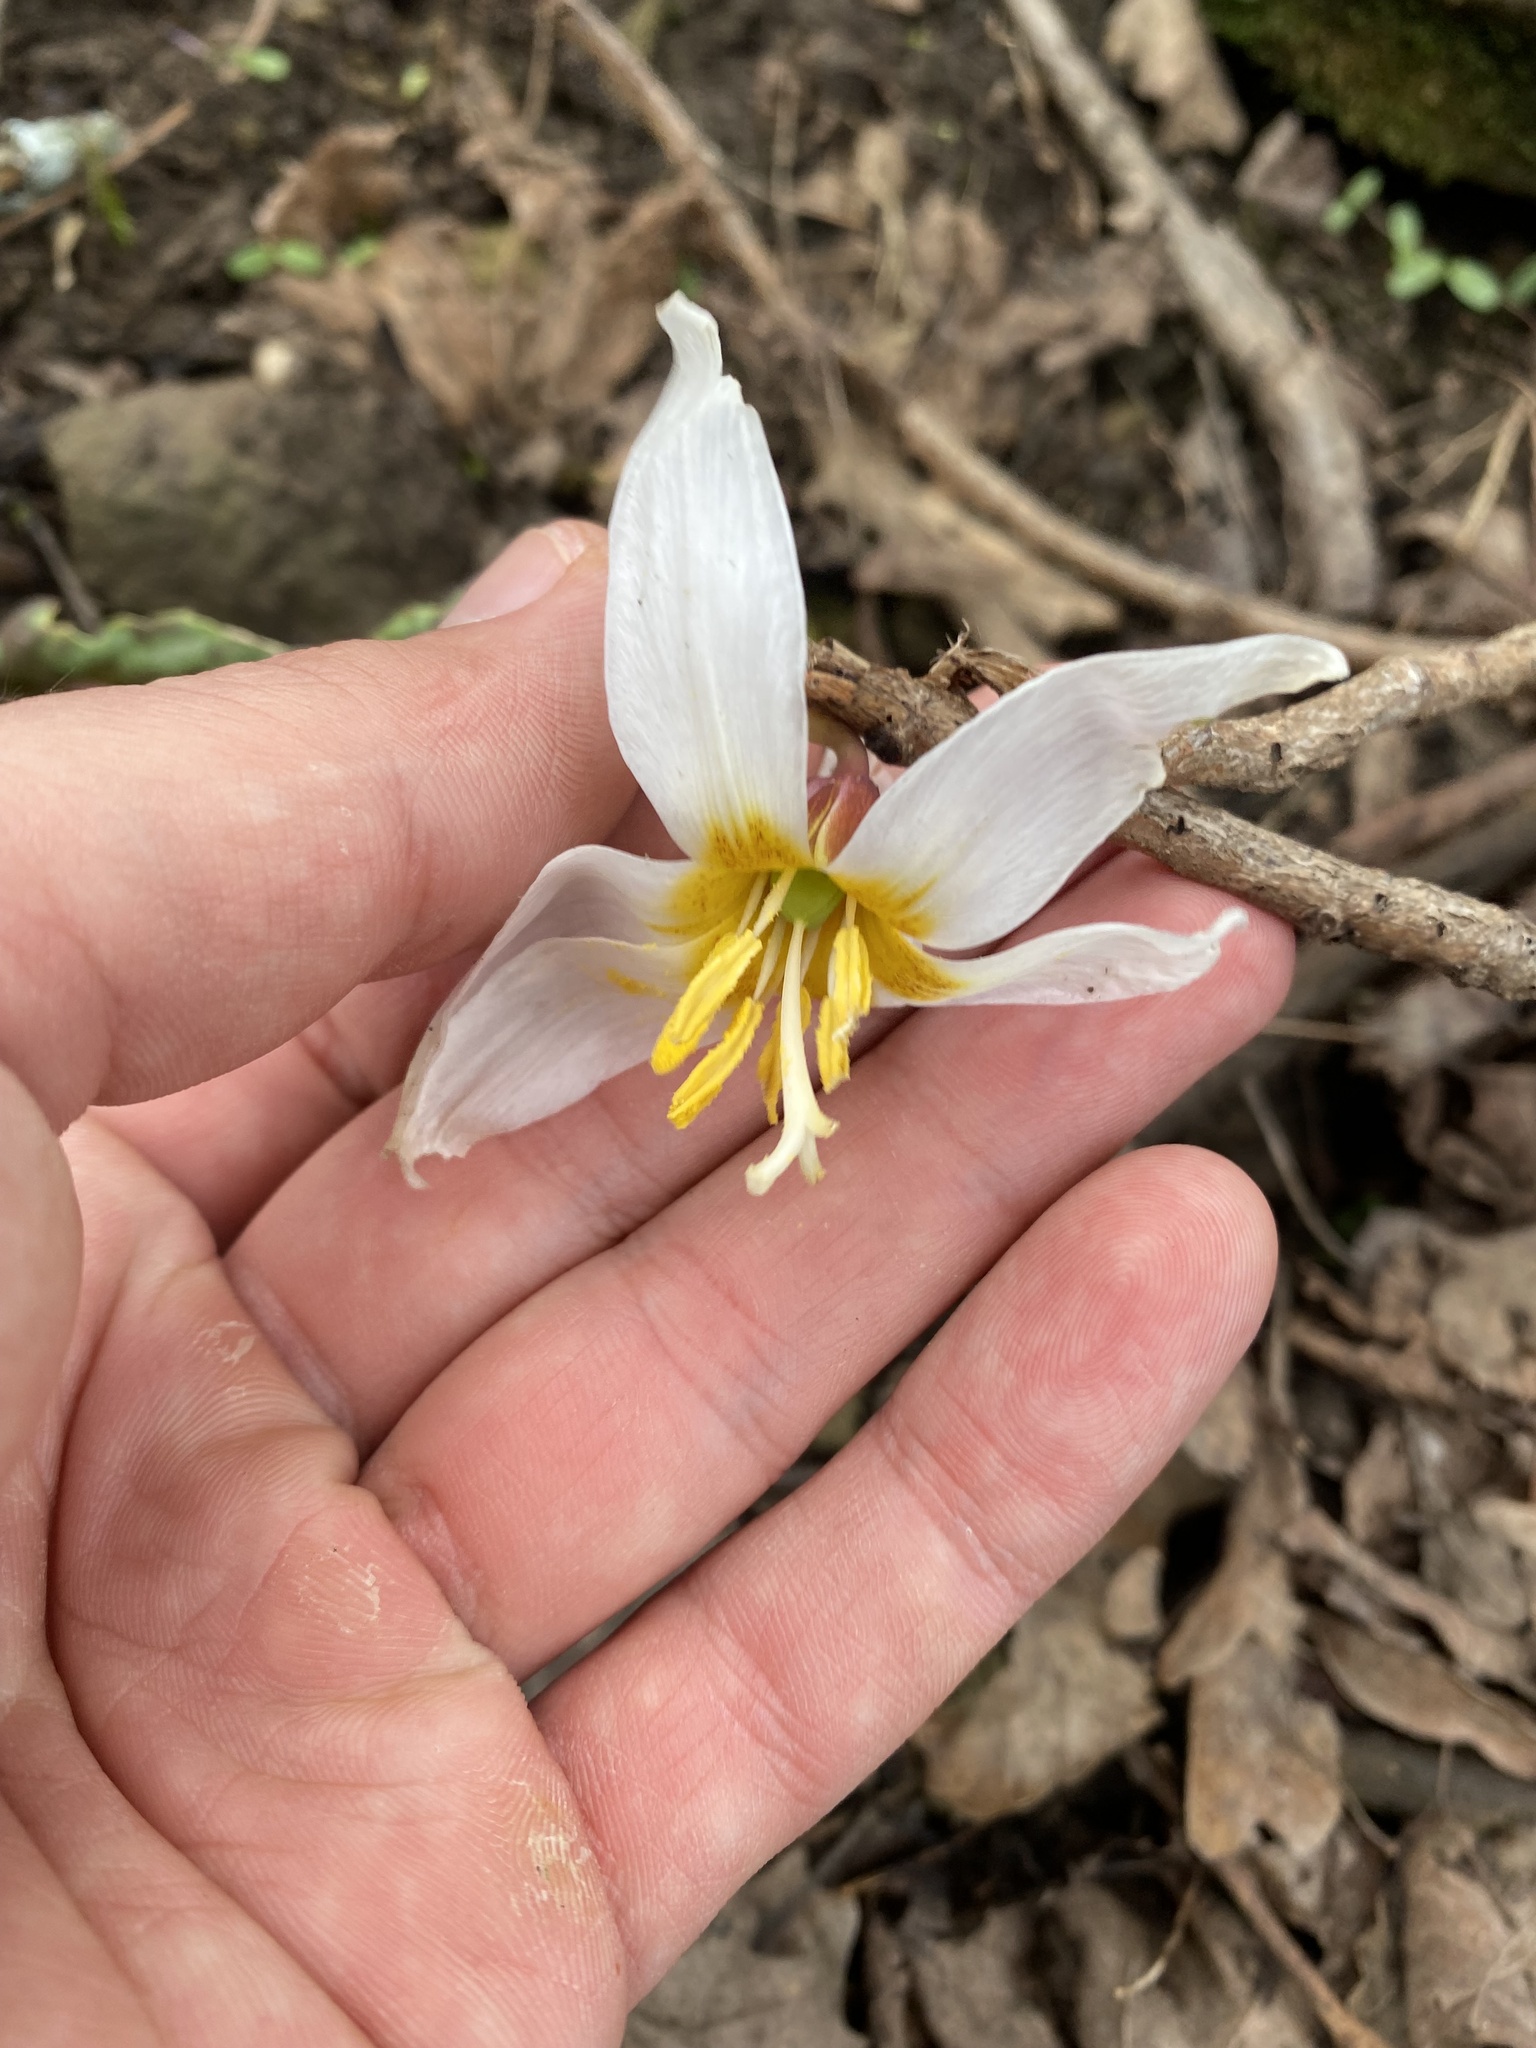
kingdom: Plantae
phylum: Tracheophyta
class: Liliopsida
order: Liliales
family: Liliaceae
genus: Erythronium
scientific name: Erythronium caucasicum
